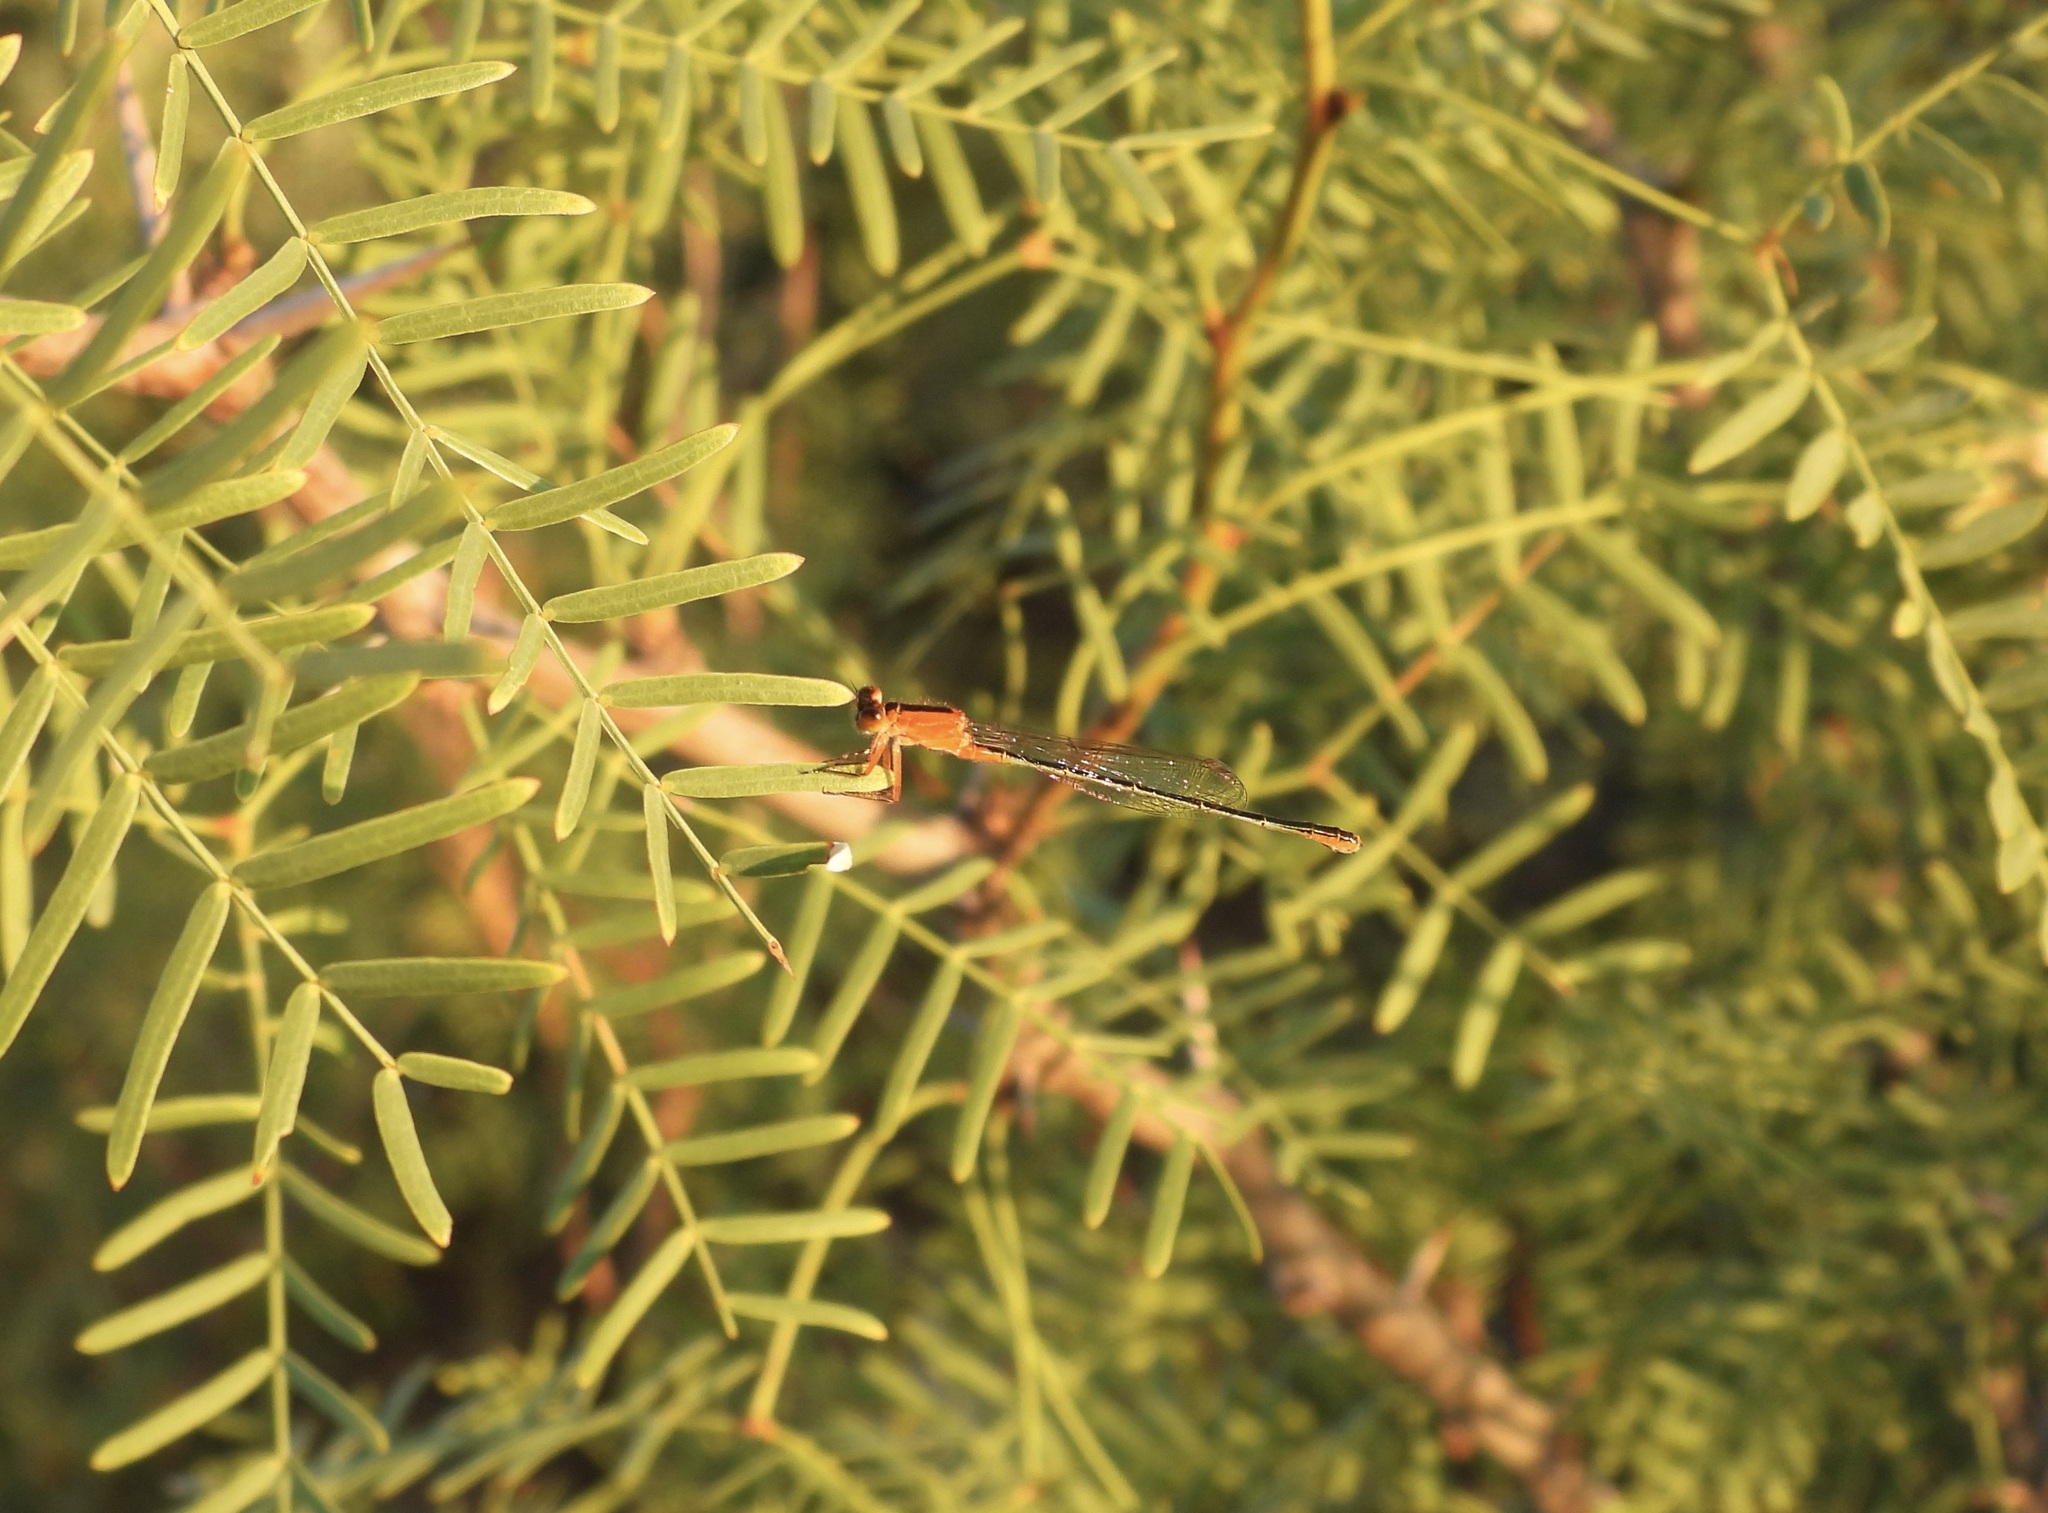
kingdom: Animalia
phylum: Arthropoda
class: Insecta
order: Odonata
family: Coenagrionidae
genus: Ischnura
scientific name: Ischnura ramburii
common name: Rambur's forktail
